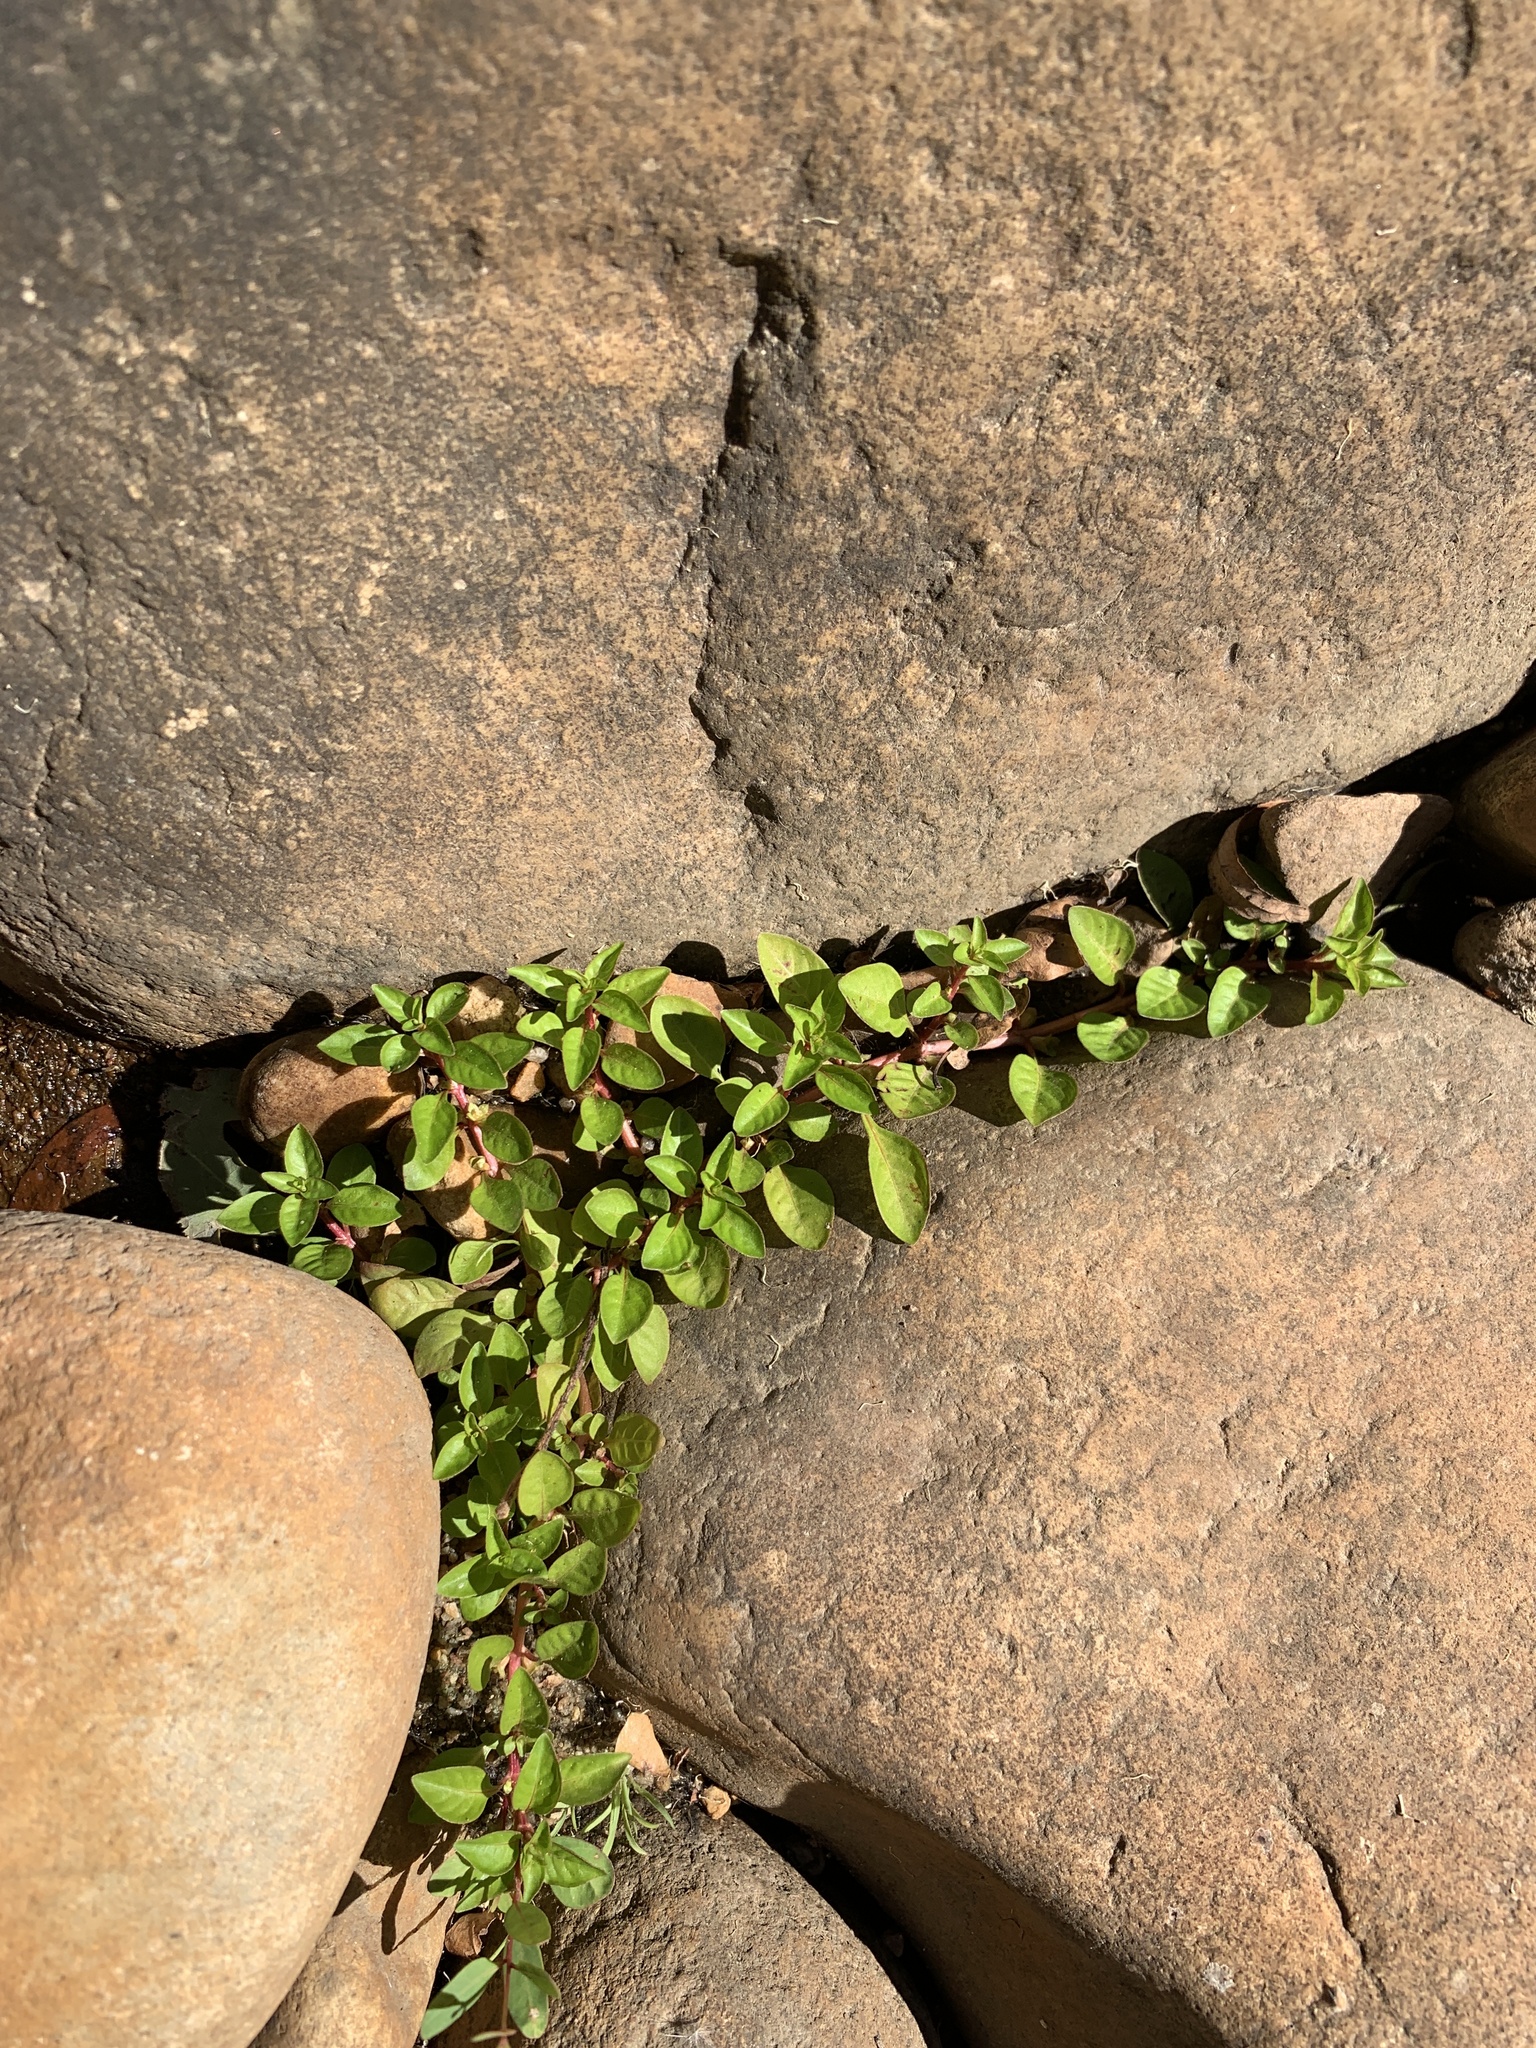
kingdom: Plantae
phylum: Tracheophyta
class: Magnoliopsida
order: Myrtales
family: Onagraceae
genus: Ludwigia
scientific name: Ludwigia palustris
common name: Hampshire-purslane
